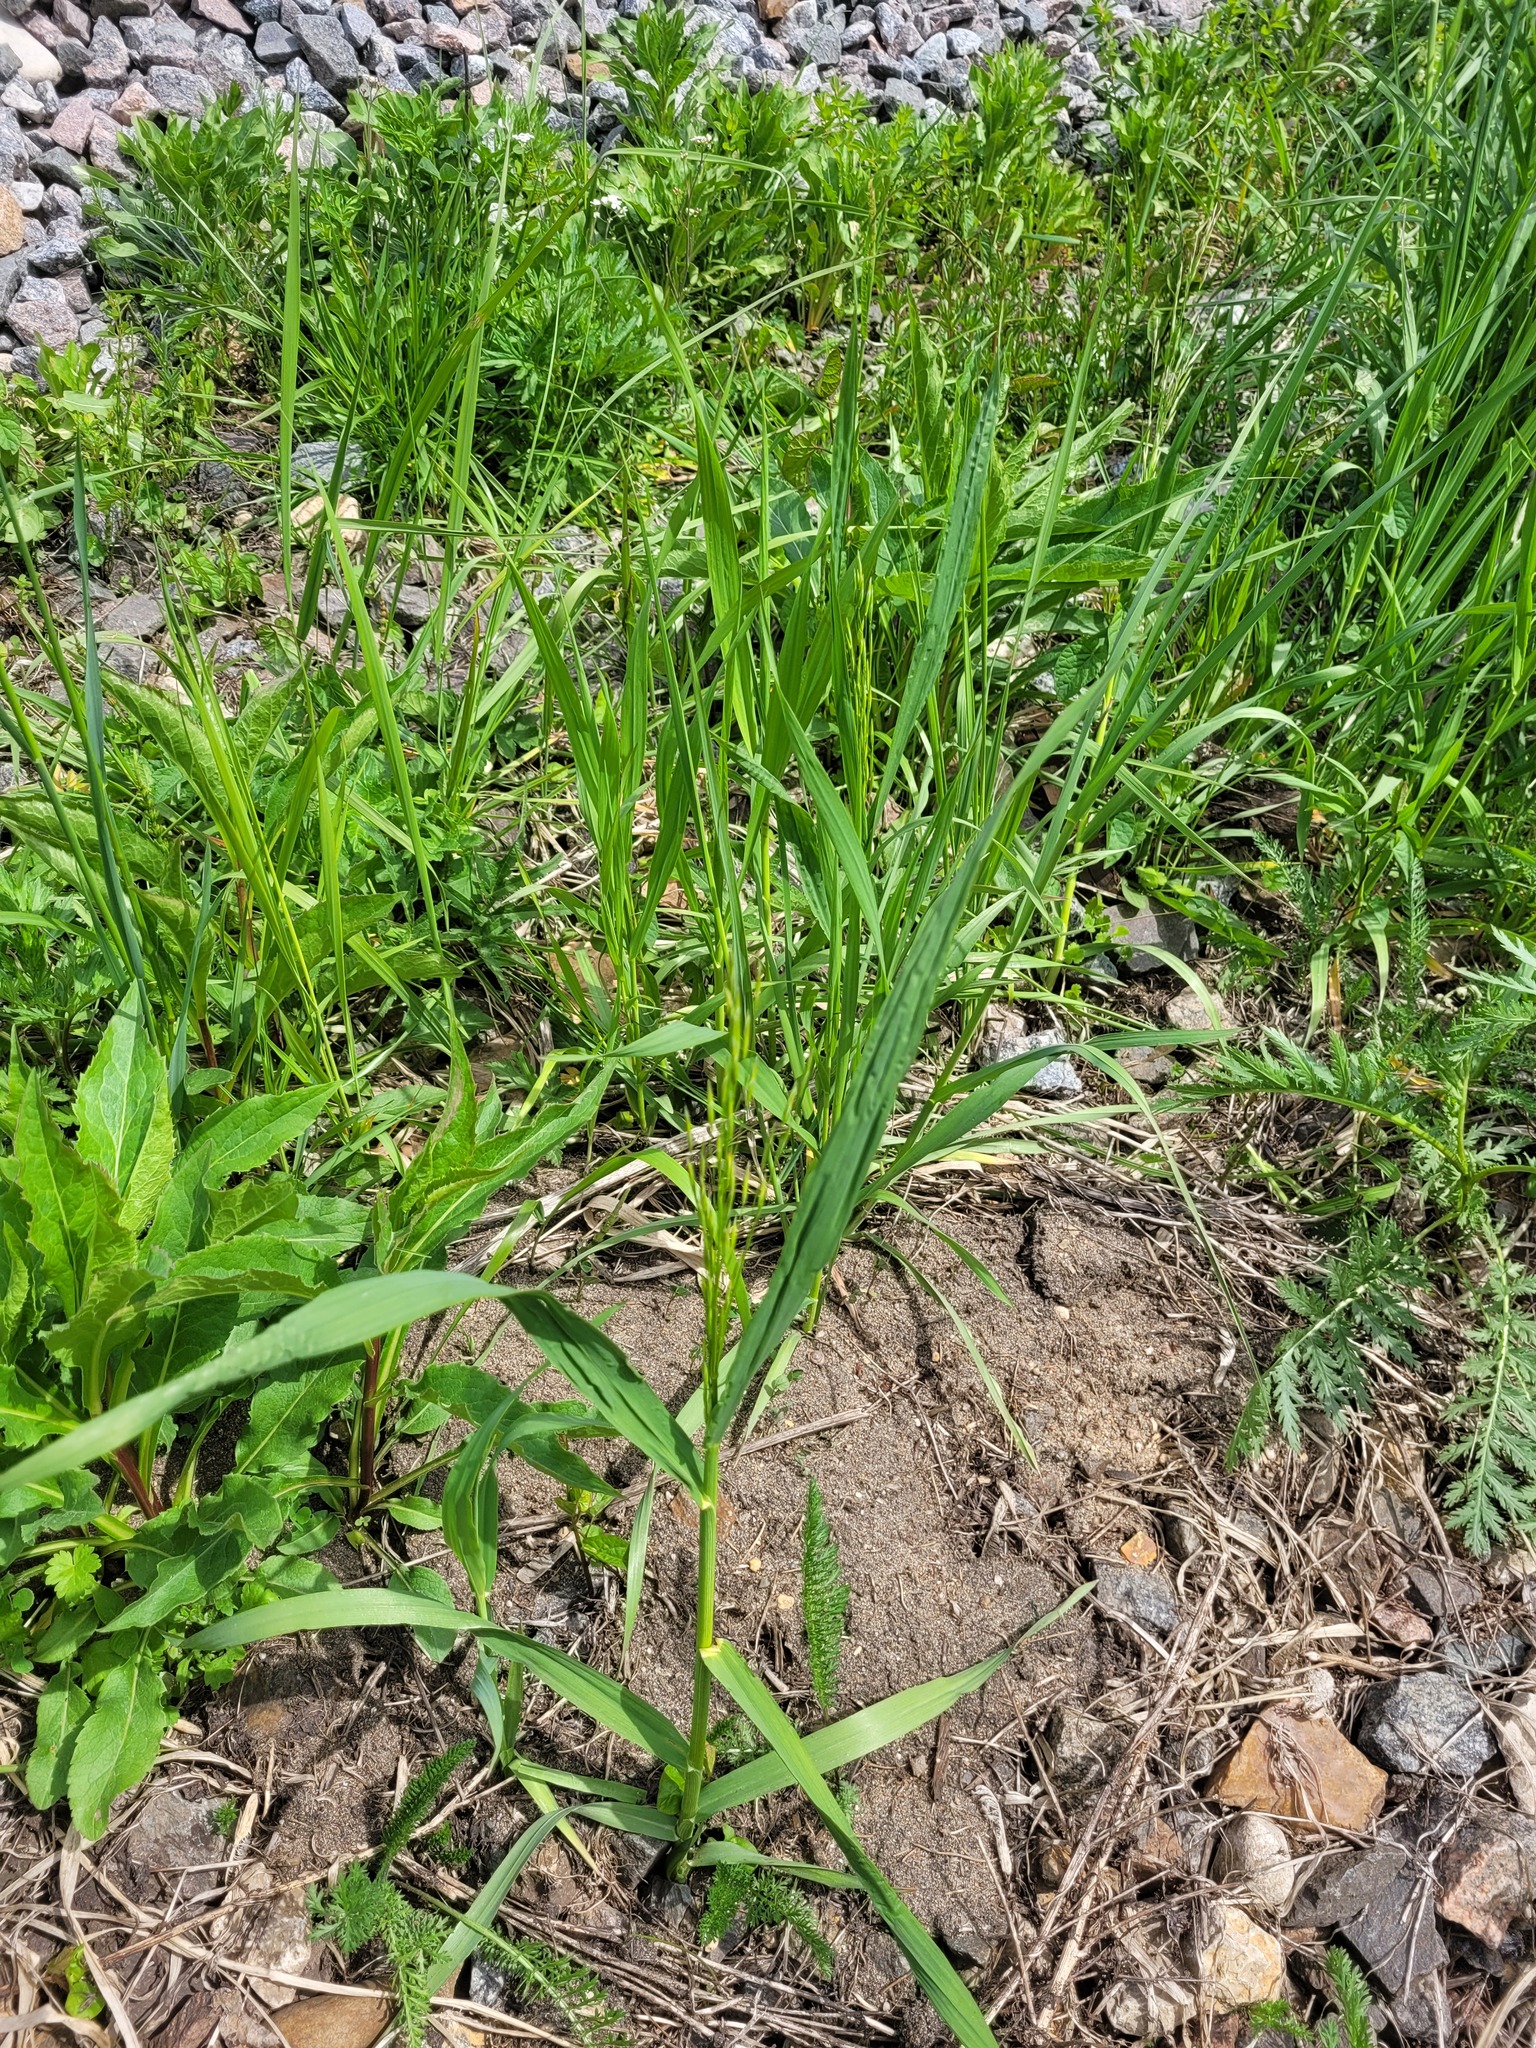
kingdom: Plantae
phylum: Tracheophyta
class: Liliopsida
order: Poales
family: Poaceae
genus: Bromus
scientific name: Bromus inermis
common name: Smooth brome
